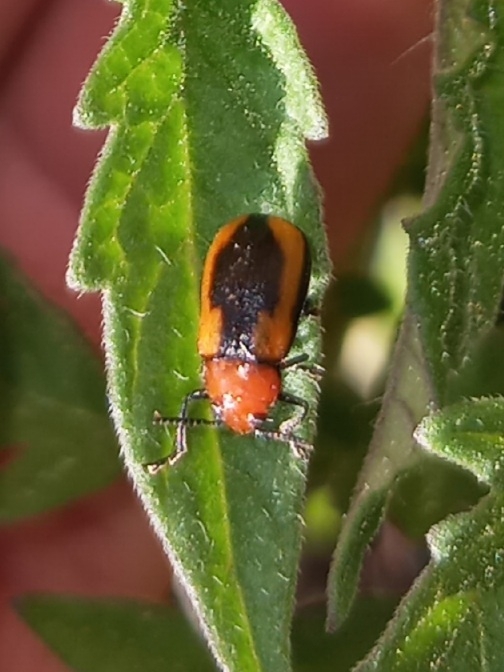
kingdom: Animalia
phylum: Arthropoda
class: Insecta
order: Coleoptera
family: Chrysomelidae
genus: Anomoea
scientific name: Anomoea laticlavia
